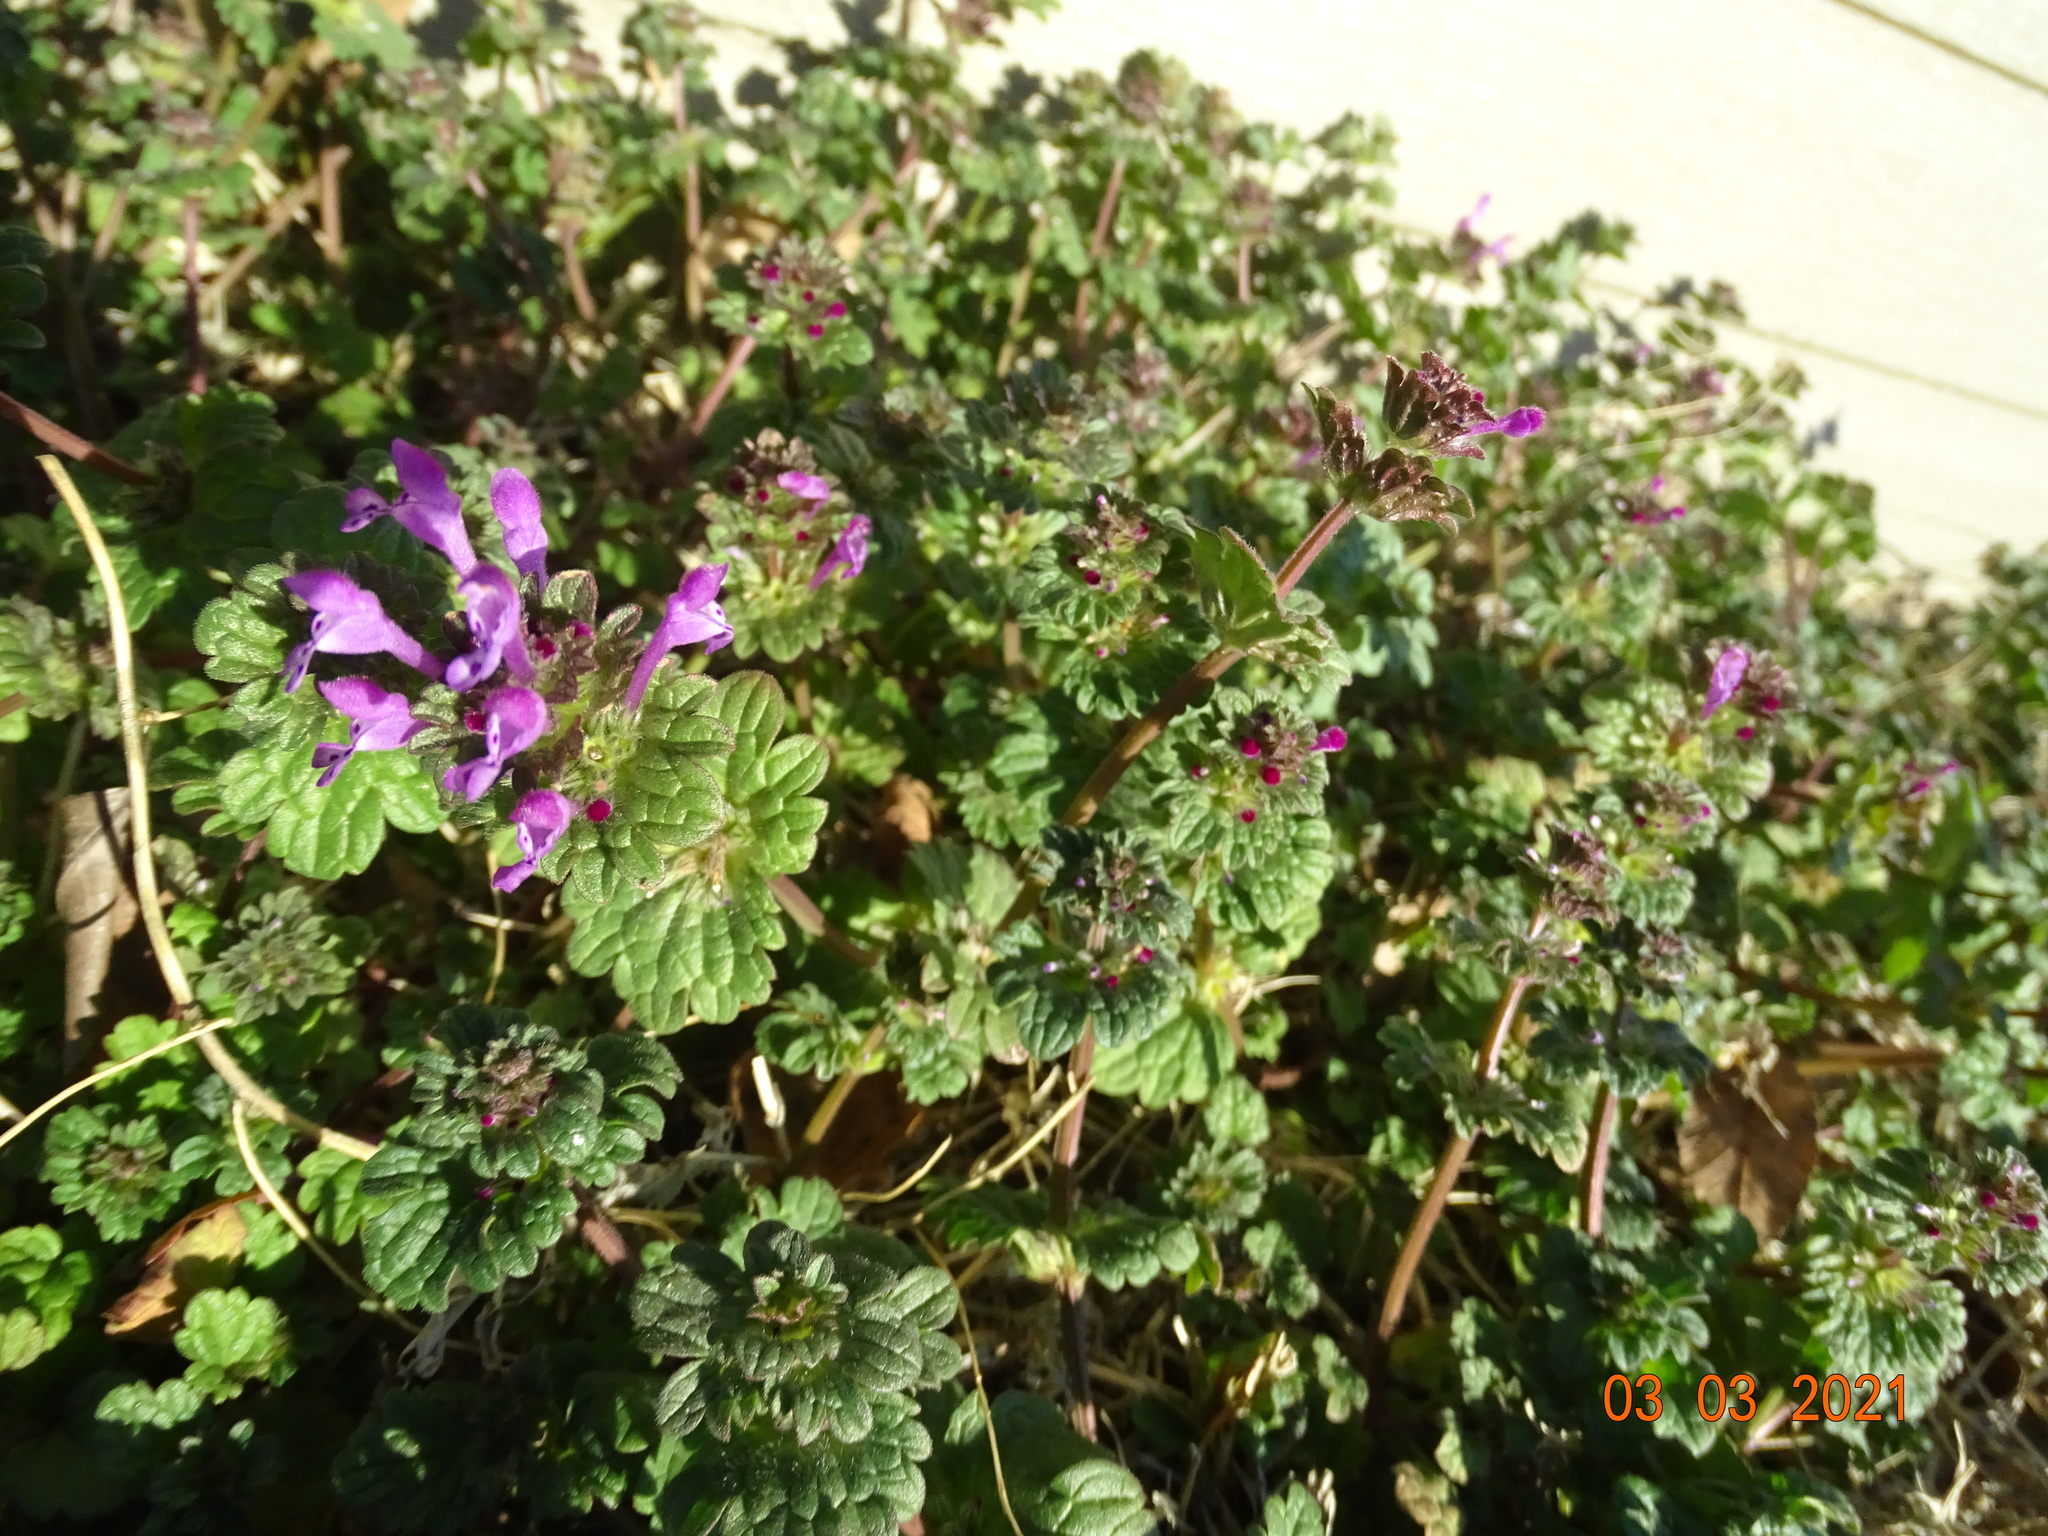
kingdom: Plantae
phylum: Tracheophyta
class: Magnoliopsida
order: Lamiales
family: Lamiaceae
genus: Lamium
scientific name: Lamium amplexicaule
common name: Henbit dead-nettle
